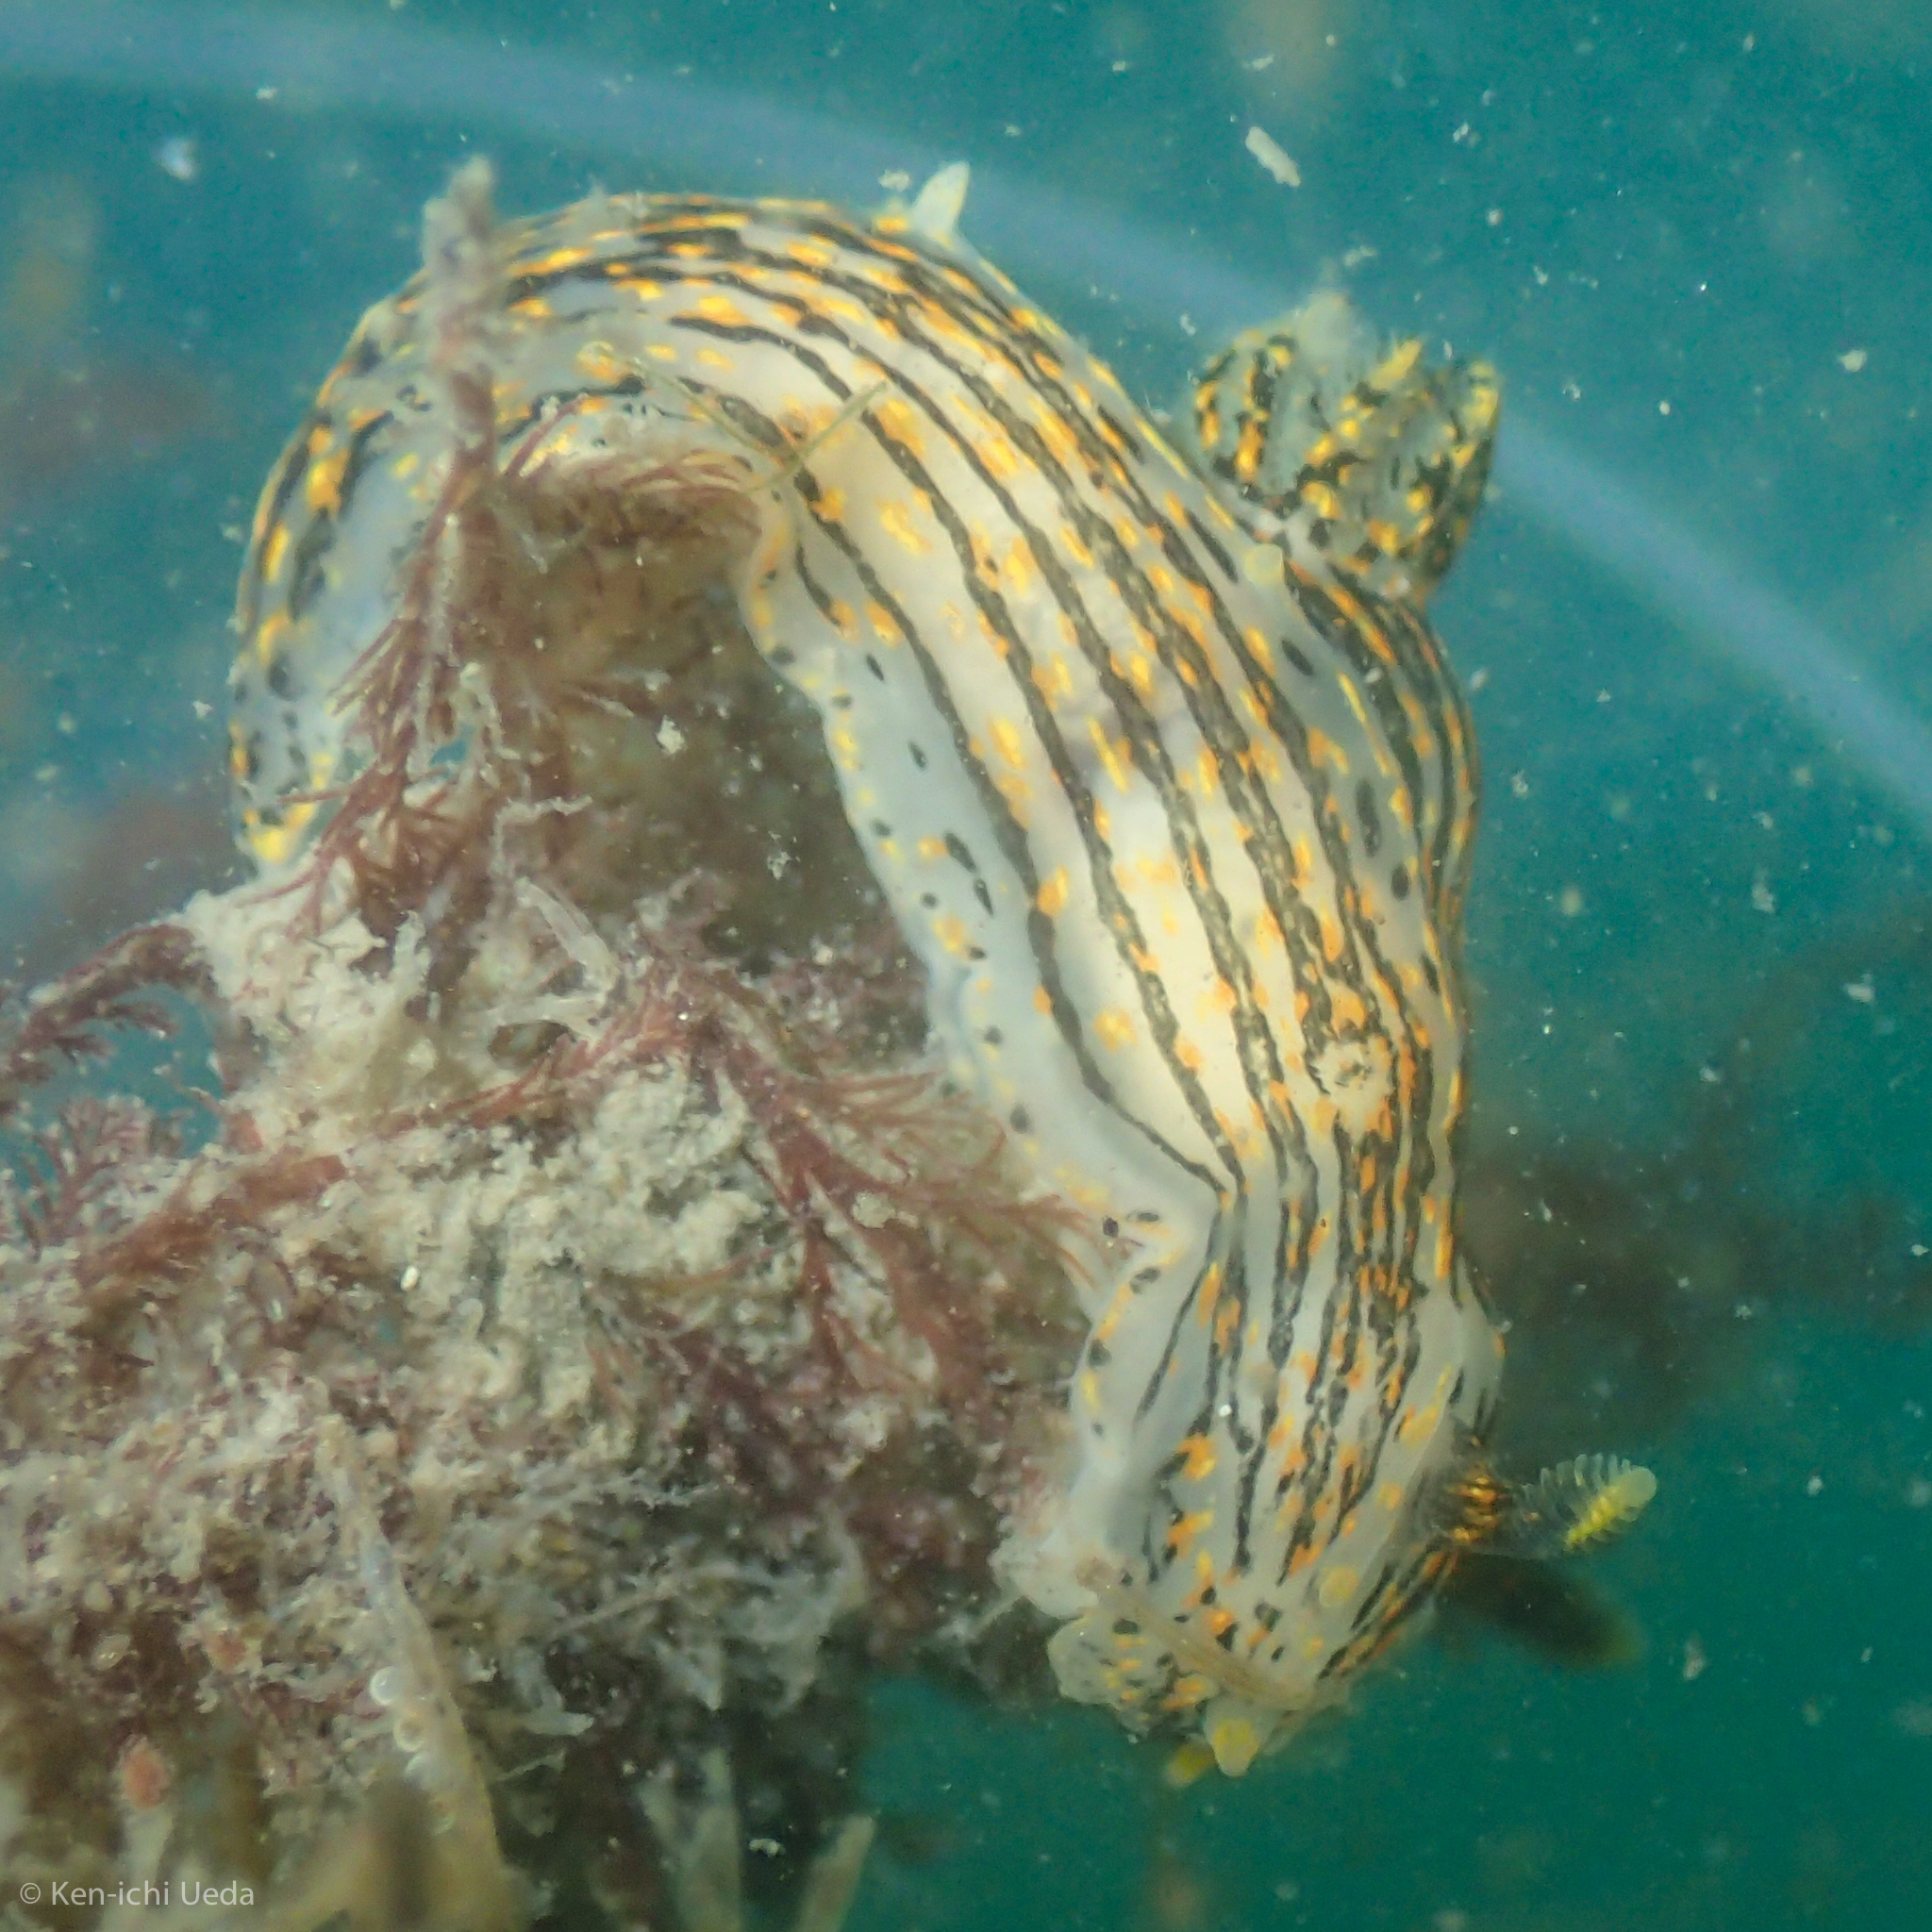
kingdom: Animalia
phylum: Mollusca
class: Gastropoda
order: Nudibranchia
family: Polyceridae
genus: Polycera
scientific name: Polycera atra
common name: Orange-spike polycera
